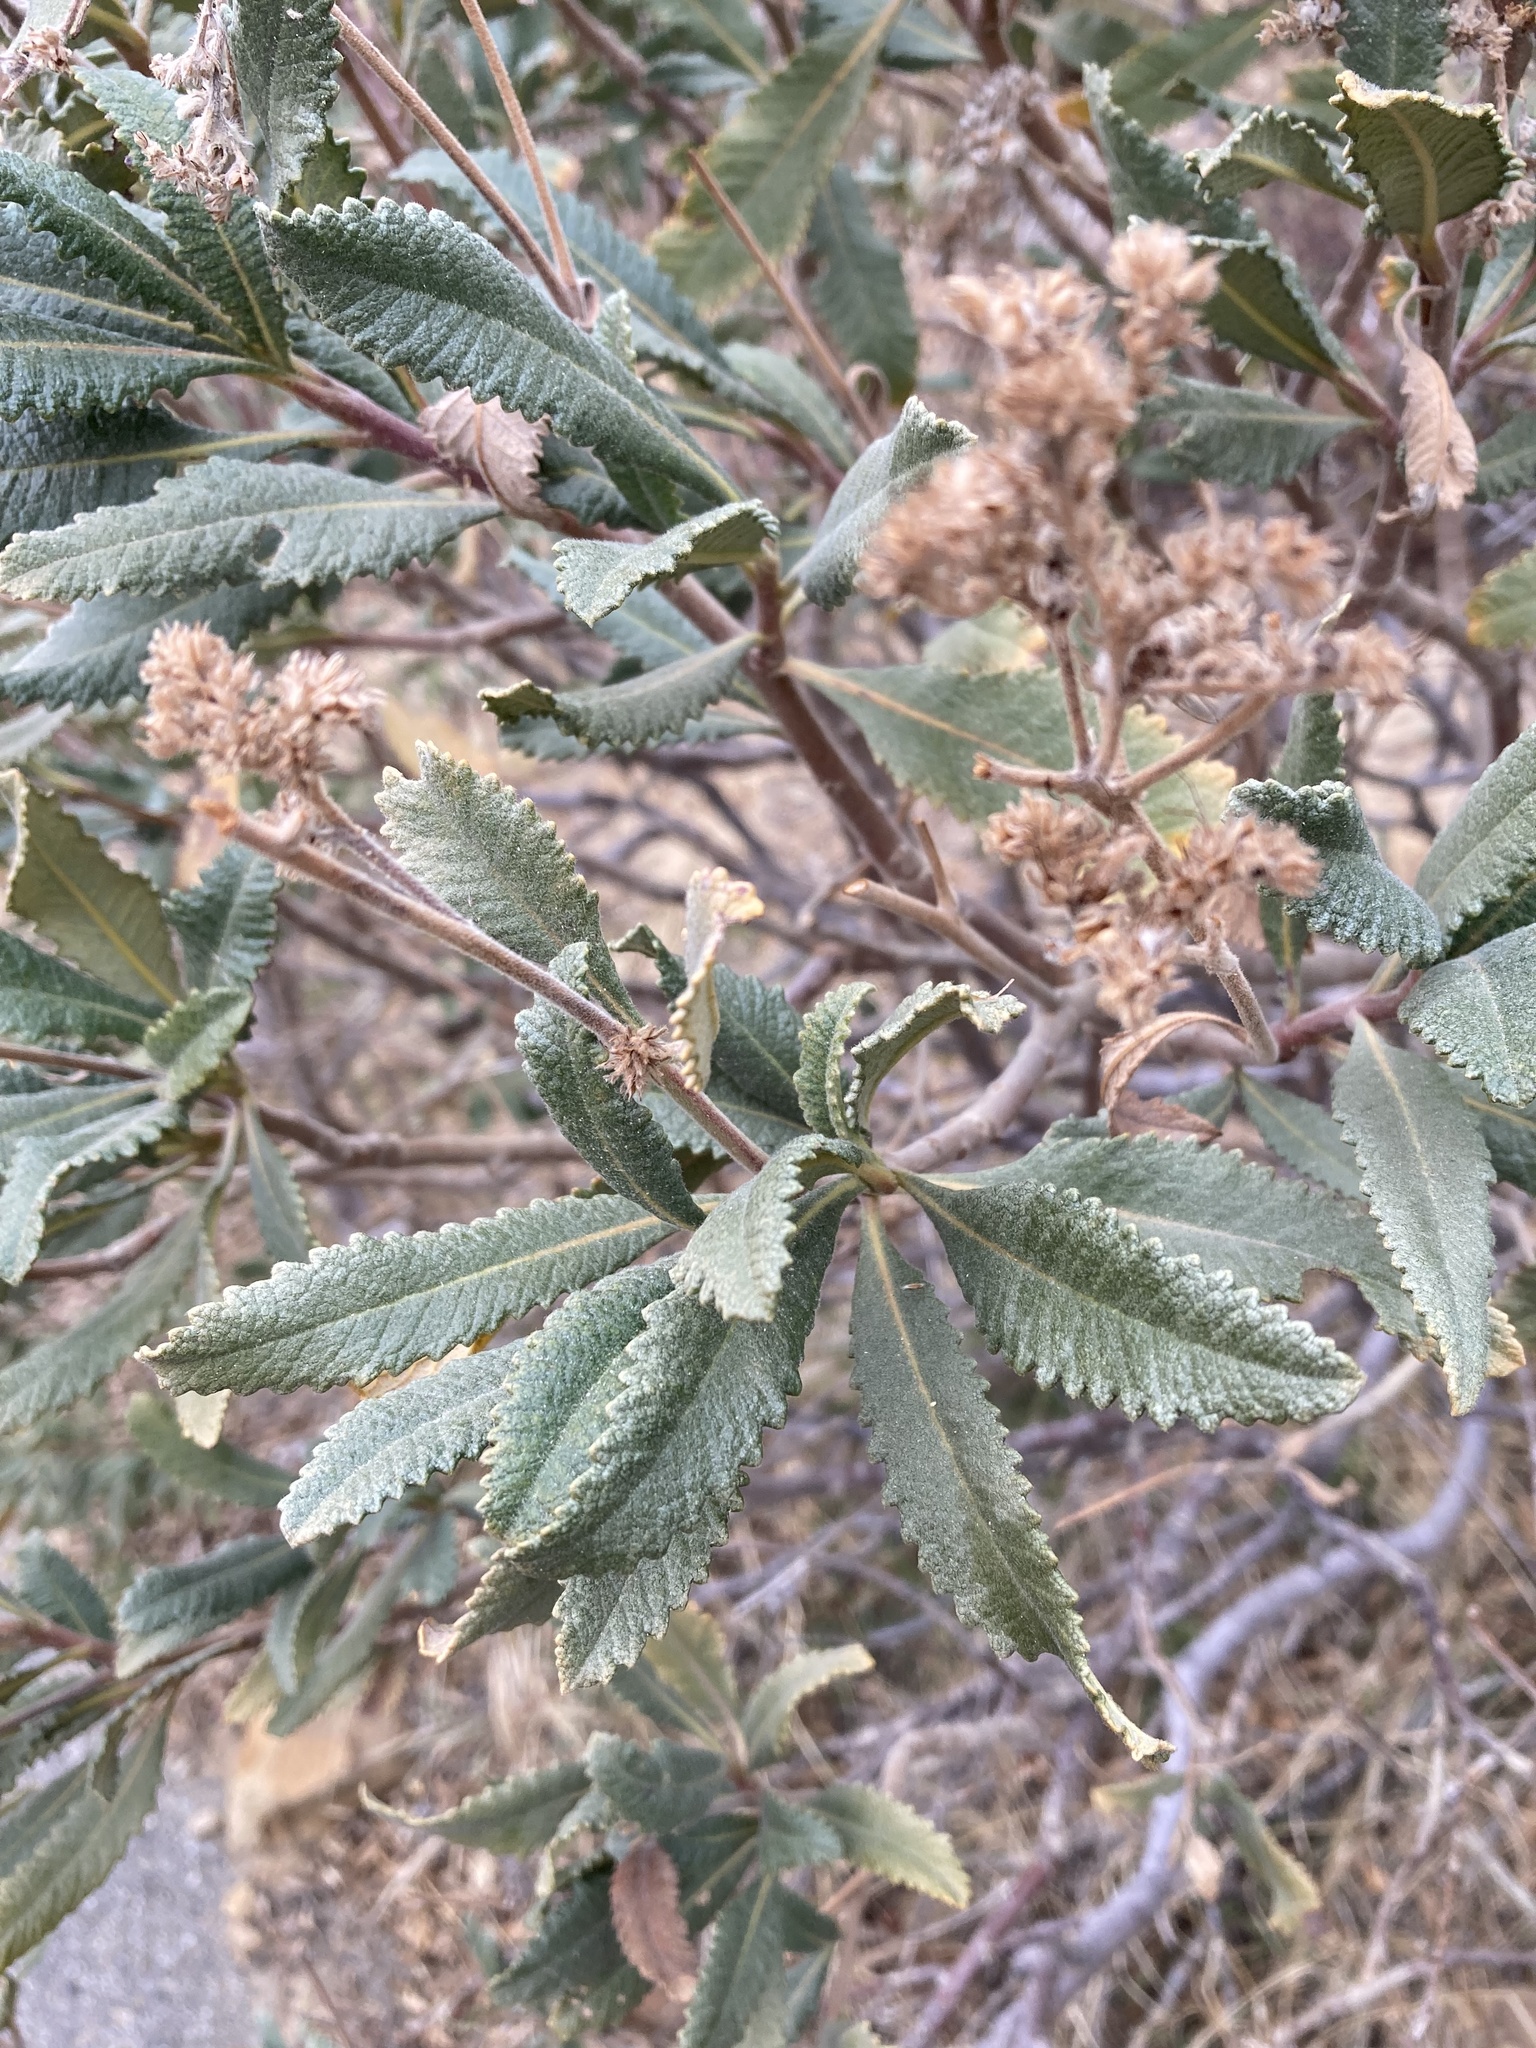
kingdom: Plantae
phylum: Tracheophyta
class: Magnoliopsida
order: Boraginales
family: Namaceae
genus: Eriodictyon
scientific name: Eriodictyon crassifolium
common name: Thick-leaf yerba-santa
